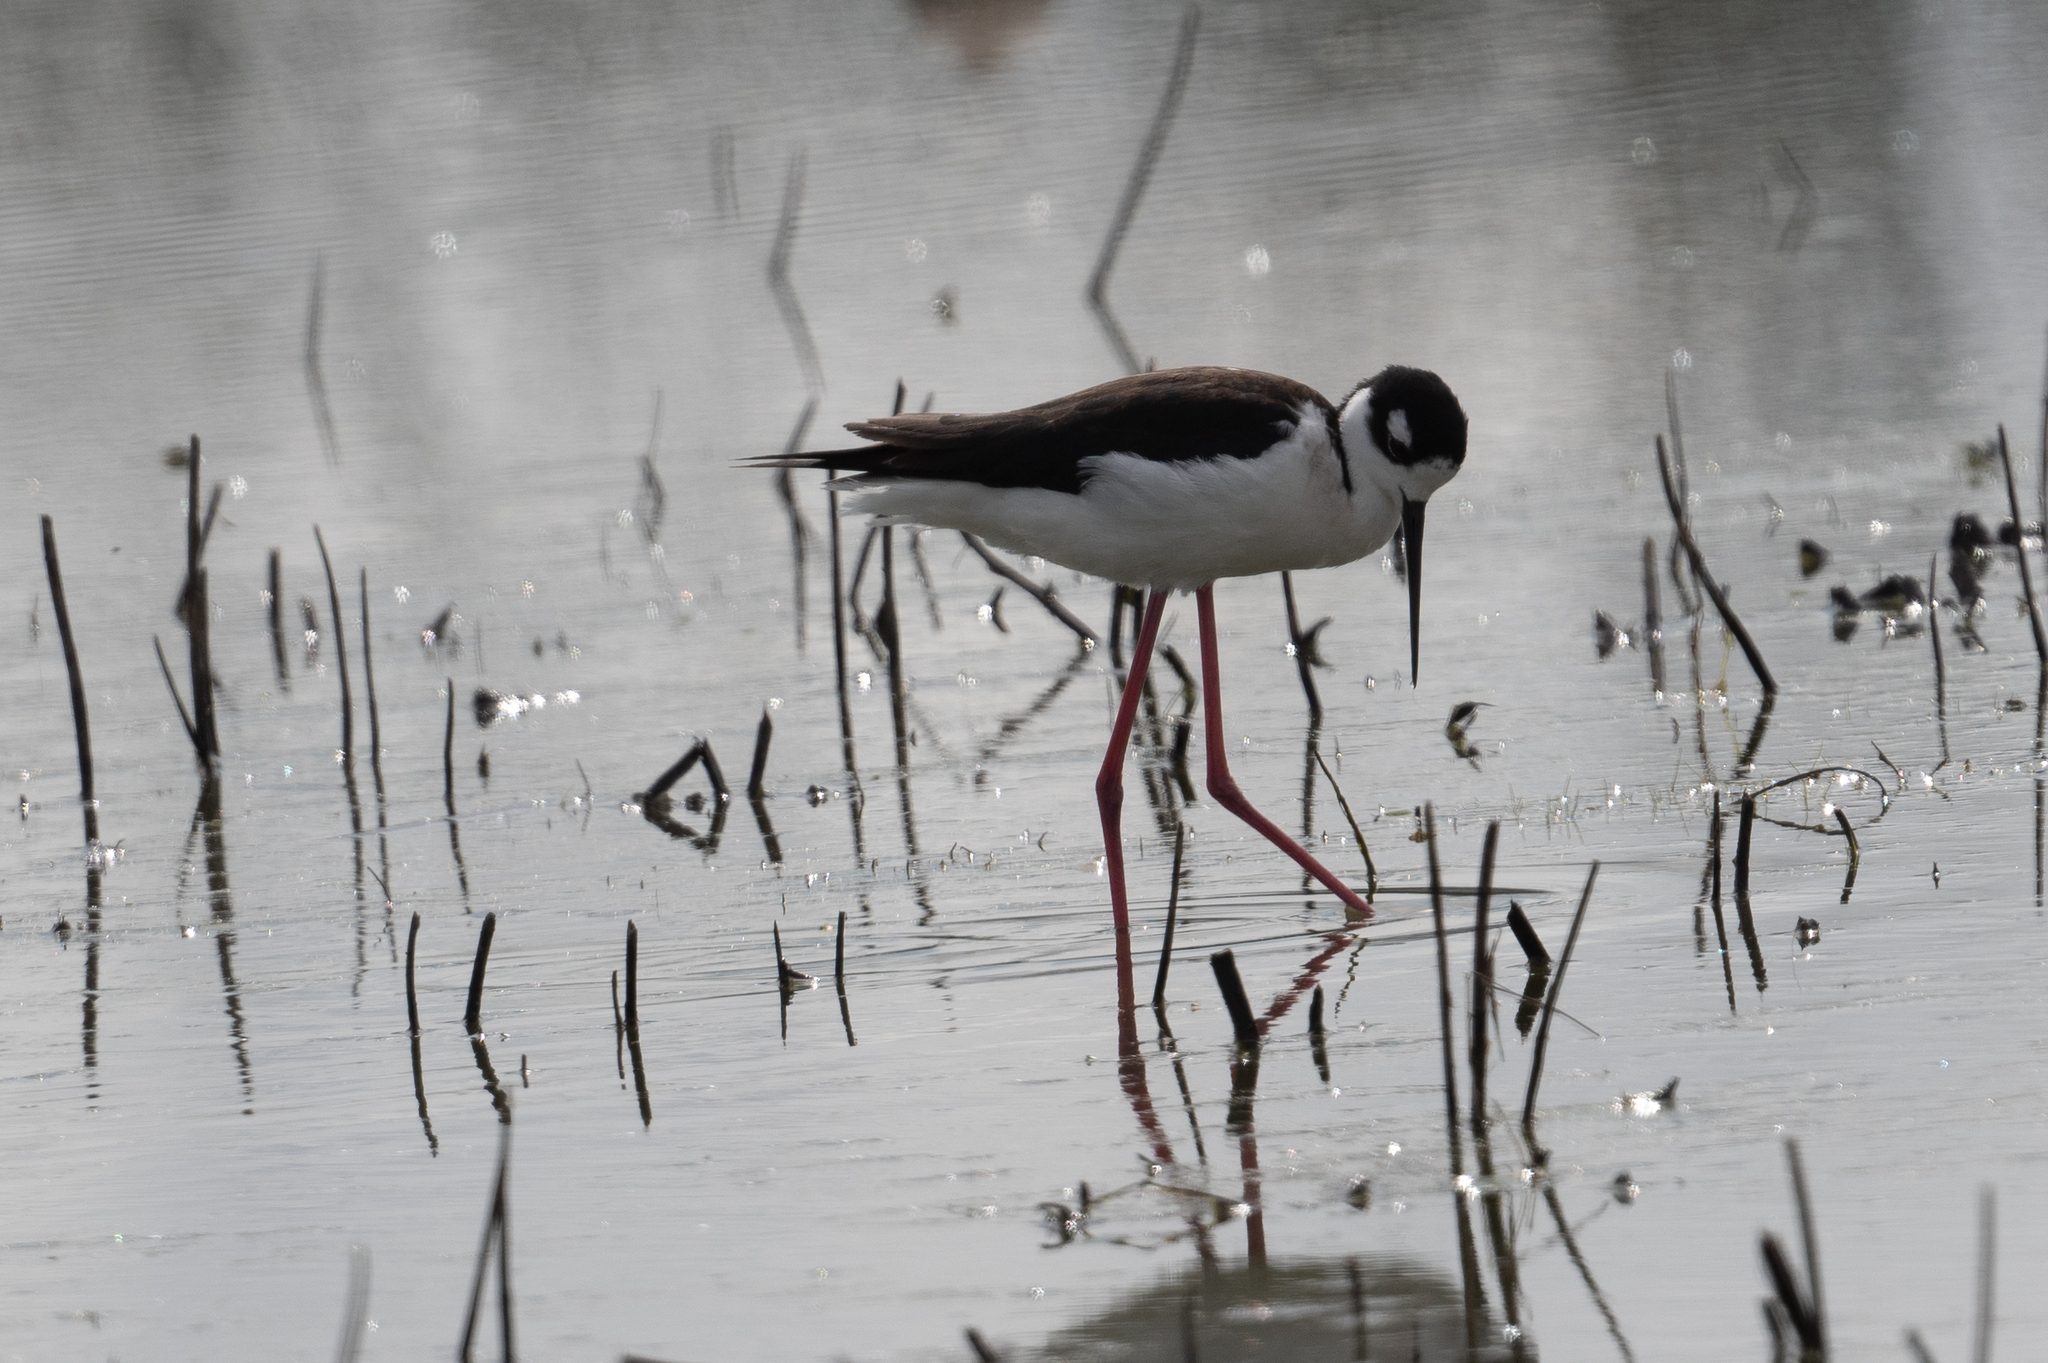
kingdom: Animalia
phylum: Chordata
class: Aves
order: Charadriiformes
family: Recurvirostridae
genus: Himantopus
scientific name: Himantopus mexicanus
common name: Black-necked stilt
